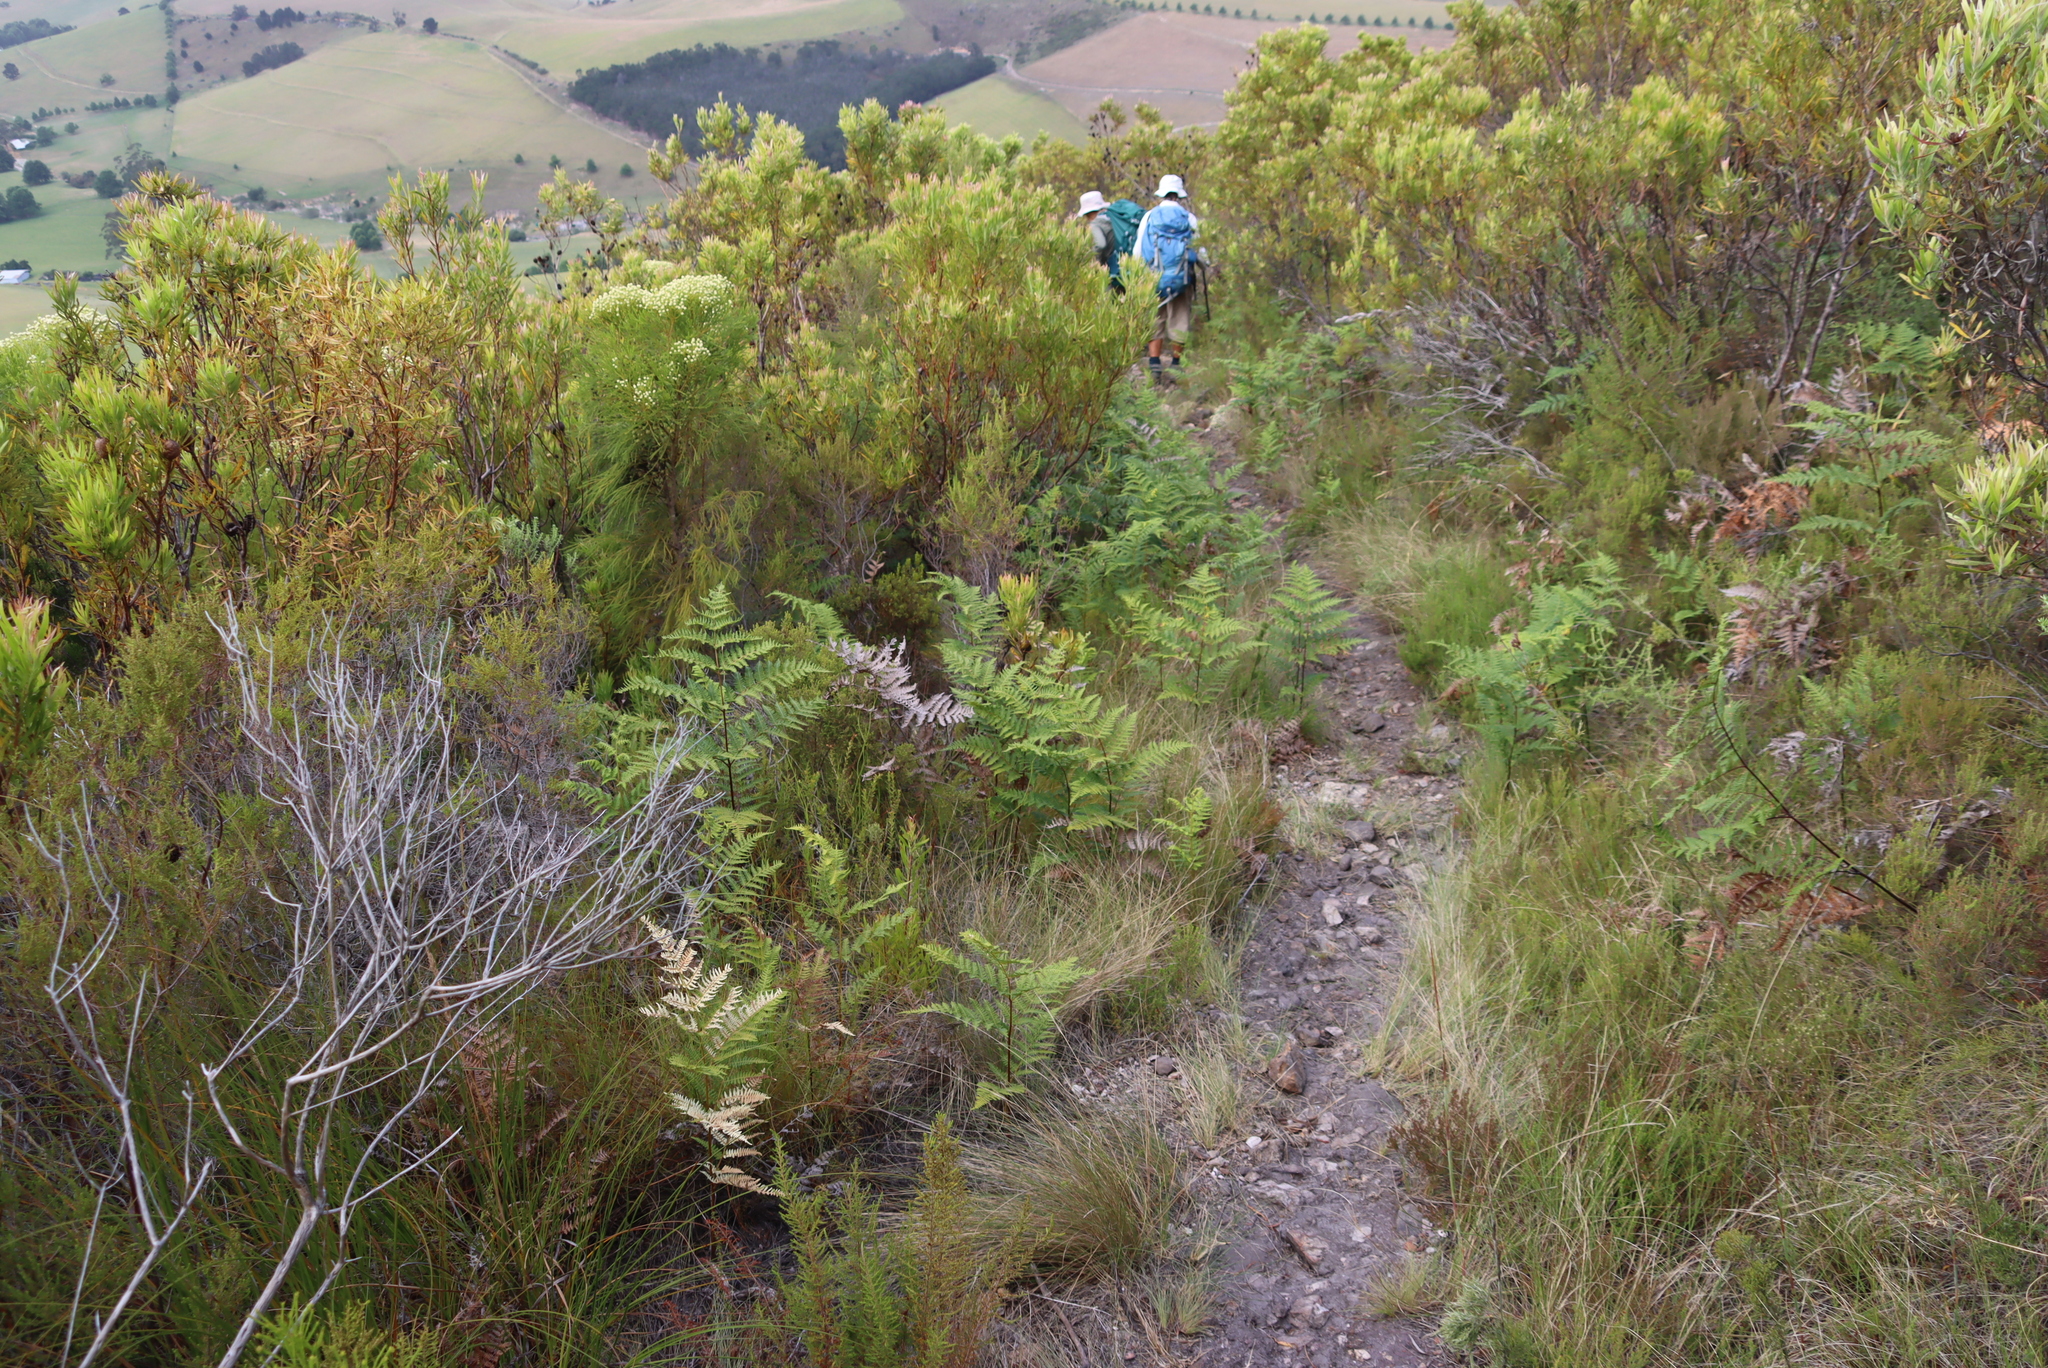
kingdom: Plantae
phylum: Tracheophyta
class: Polypodiopsida
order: Polypodiales
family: Dennstaedtiaceae
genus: Pteridium
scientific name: Pteridium aquilinum
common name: Bracken
